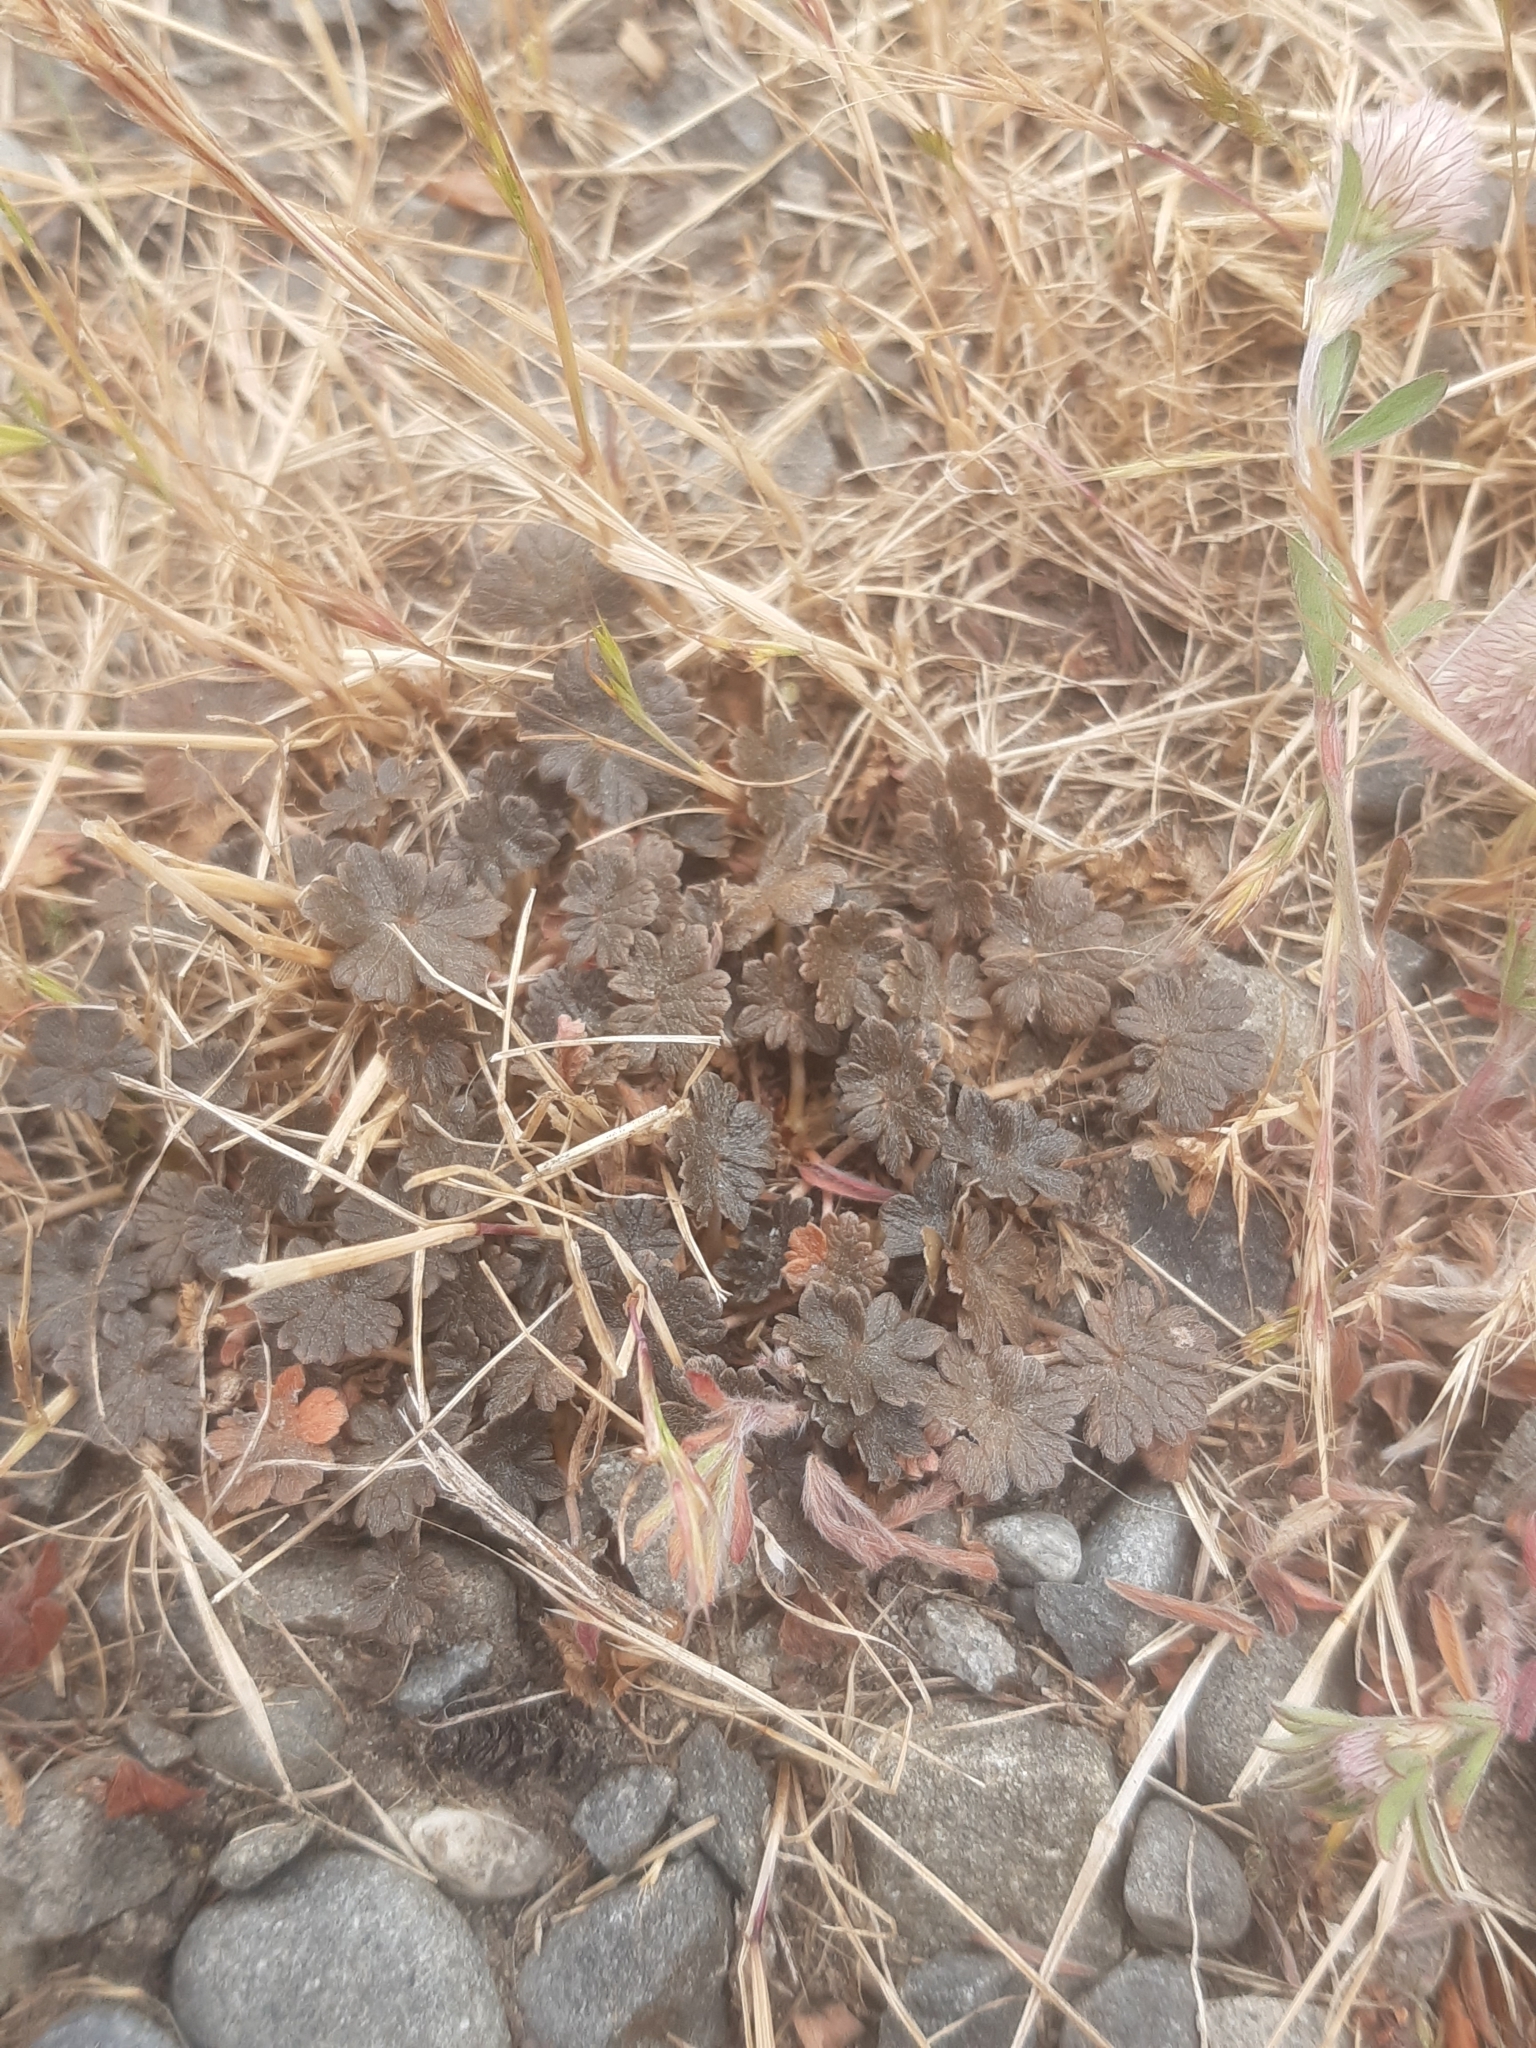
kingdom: Plantae
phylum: Tracheophyta
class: Magnoliopsida
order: Geraniales
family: Geraniaceae
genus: Geranium
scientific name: Geranium brevicaule
